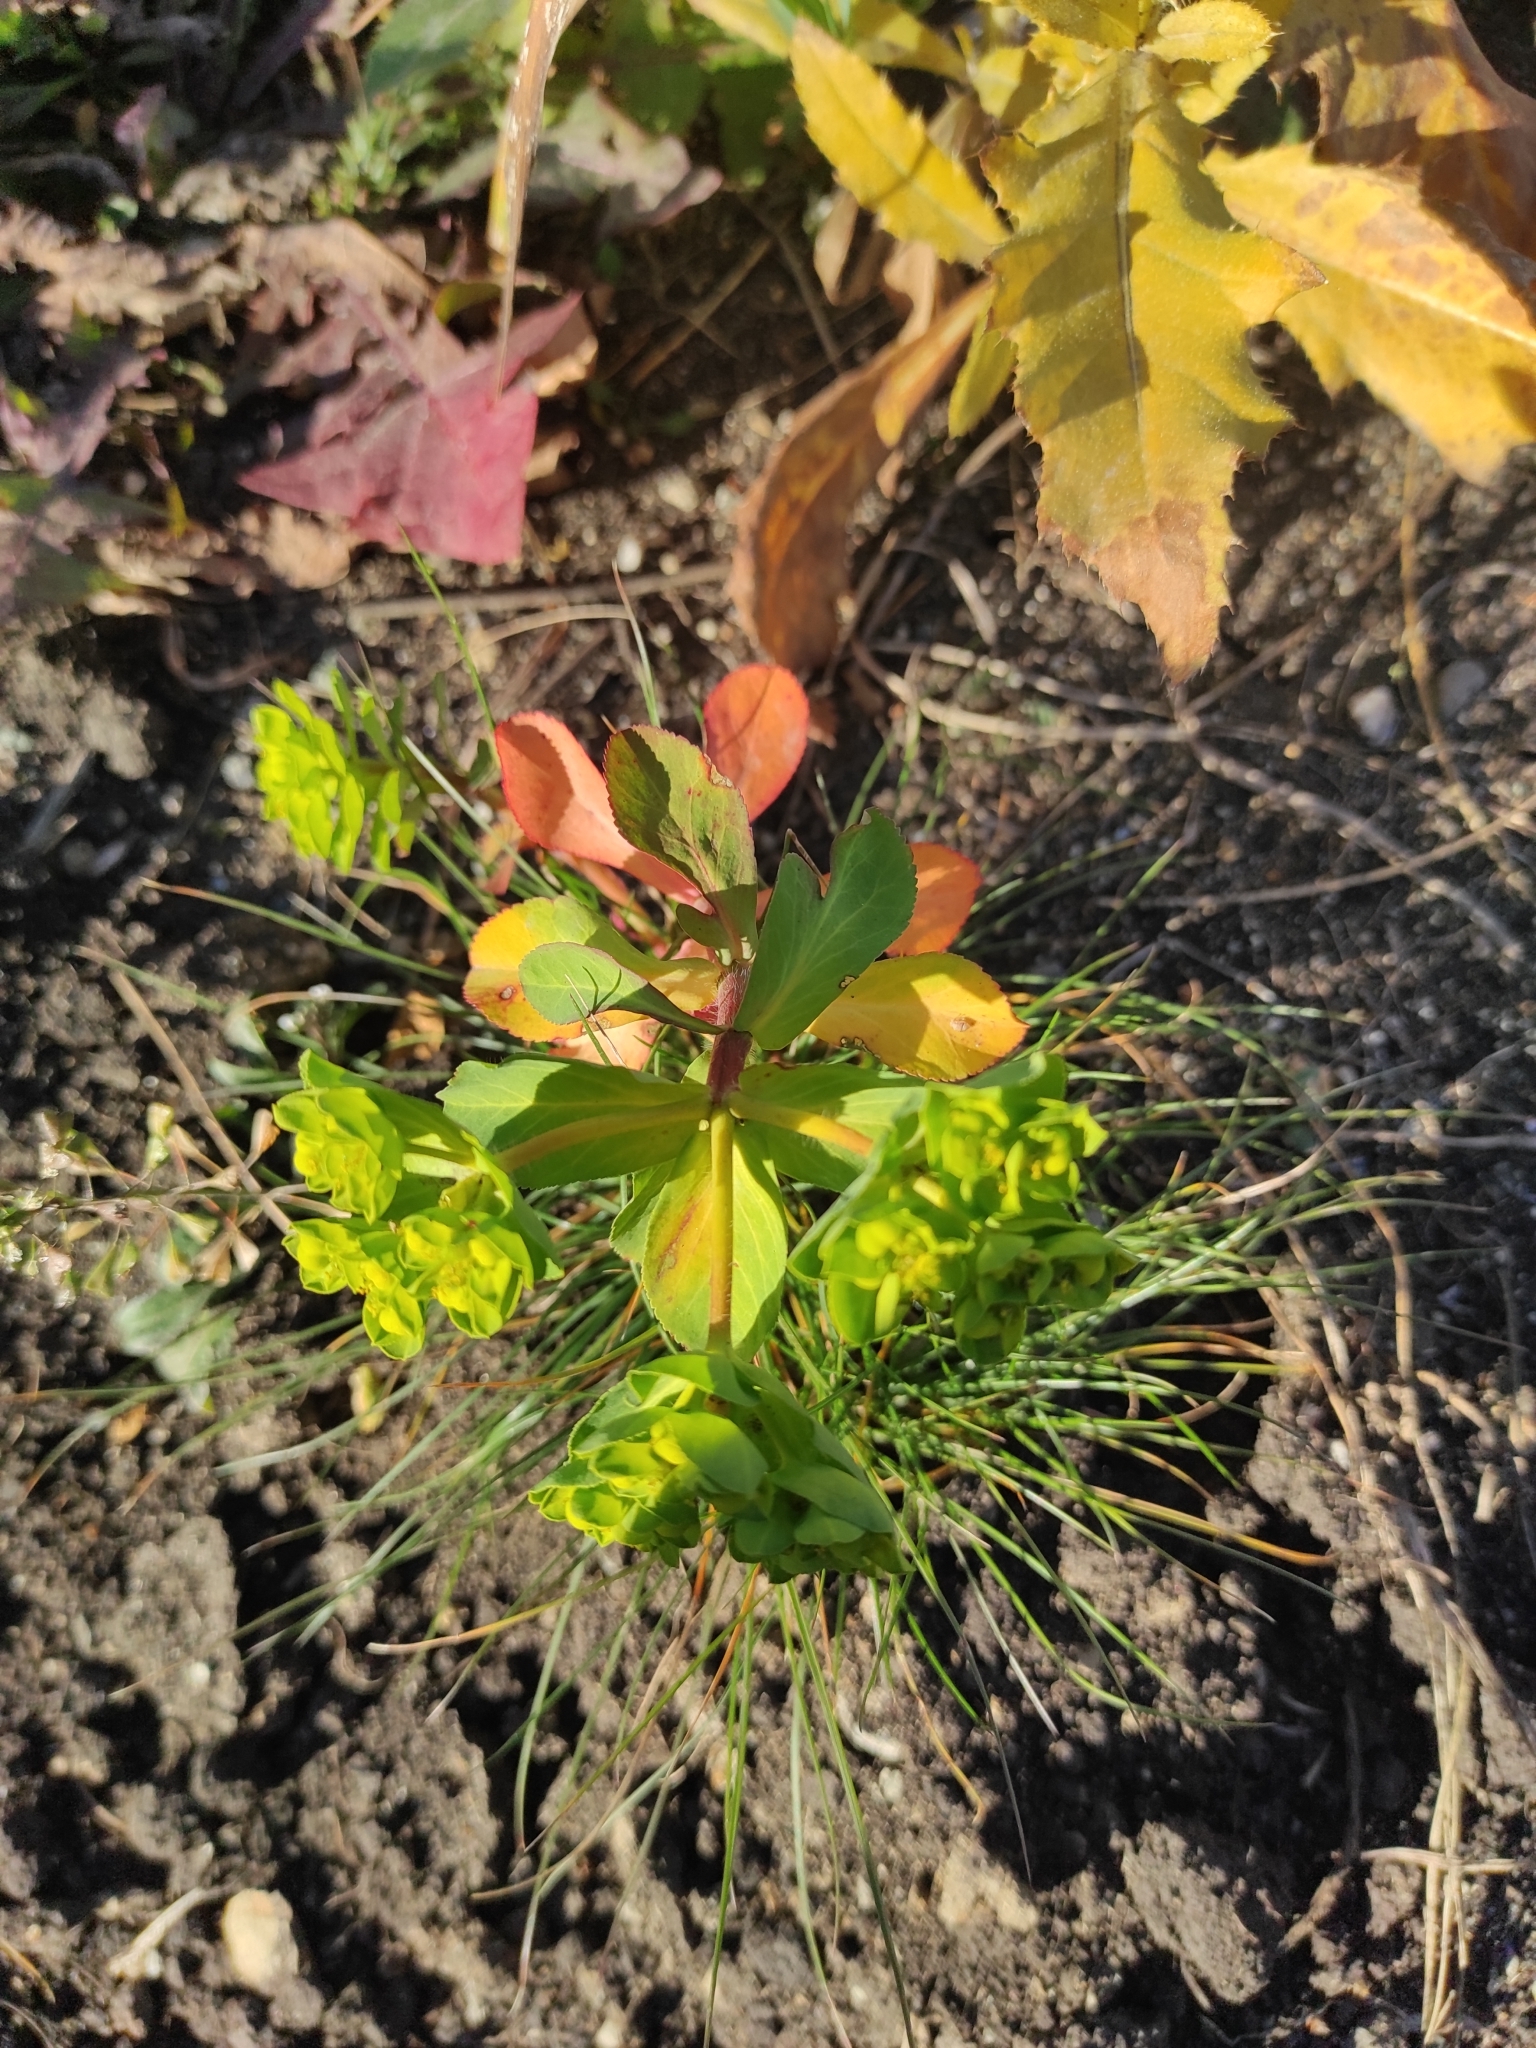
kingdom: Plantae
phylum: Tracheophyta
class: Magnoliopsida
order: Malpighiales
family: Euphorbiaceae
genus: Euphorbia
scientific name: Euphorbia helioscopia
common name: Sun spurge
